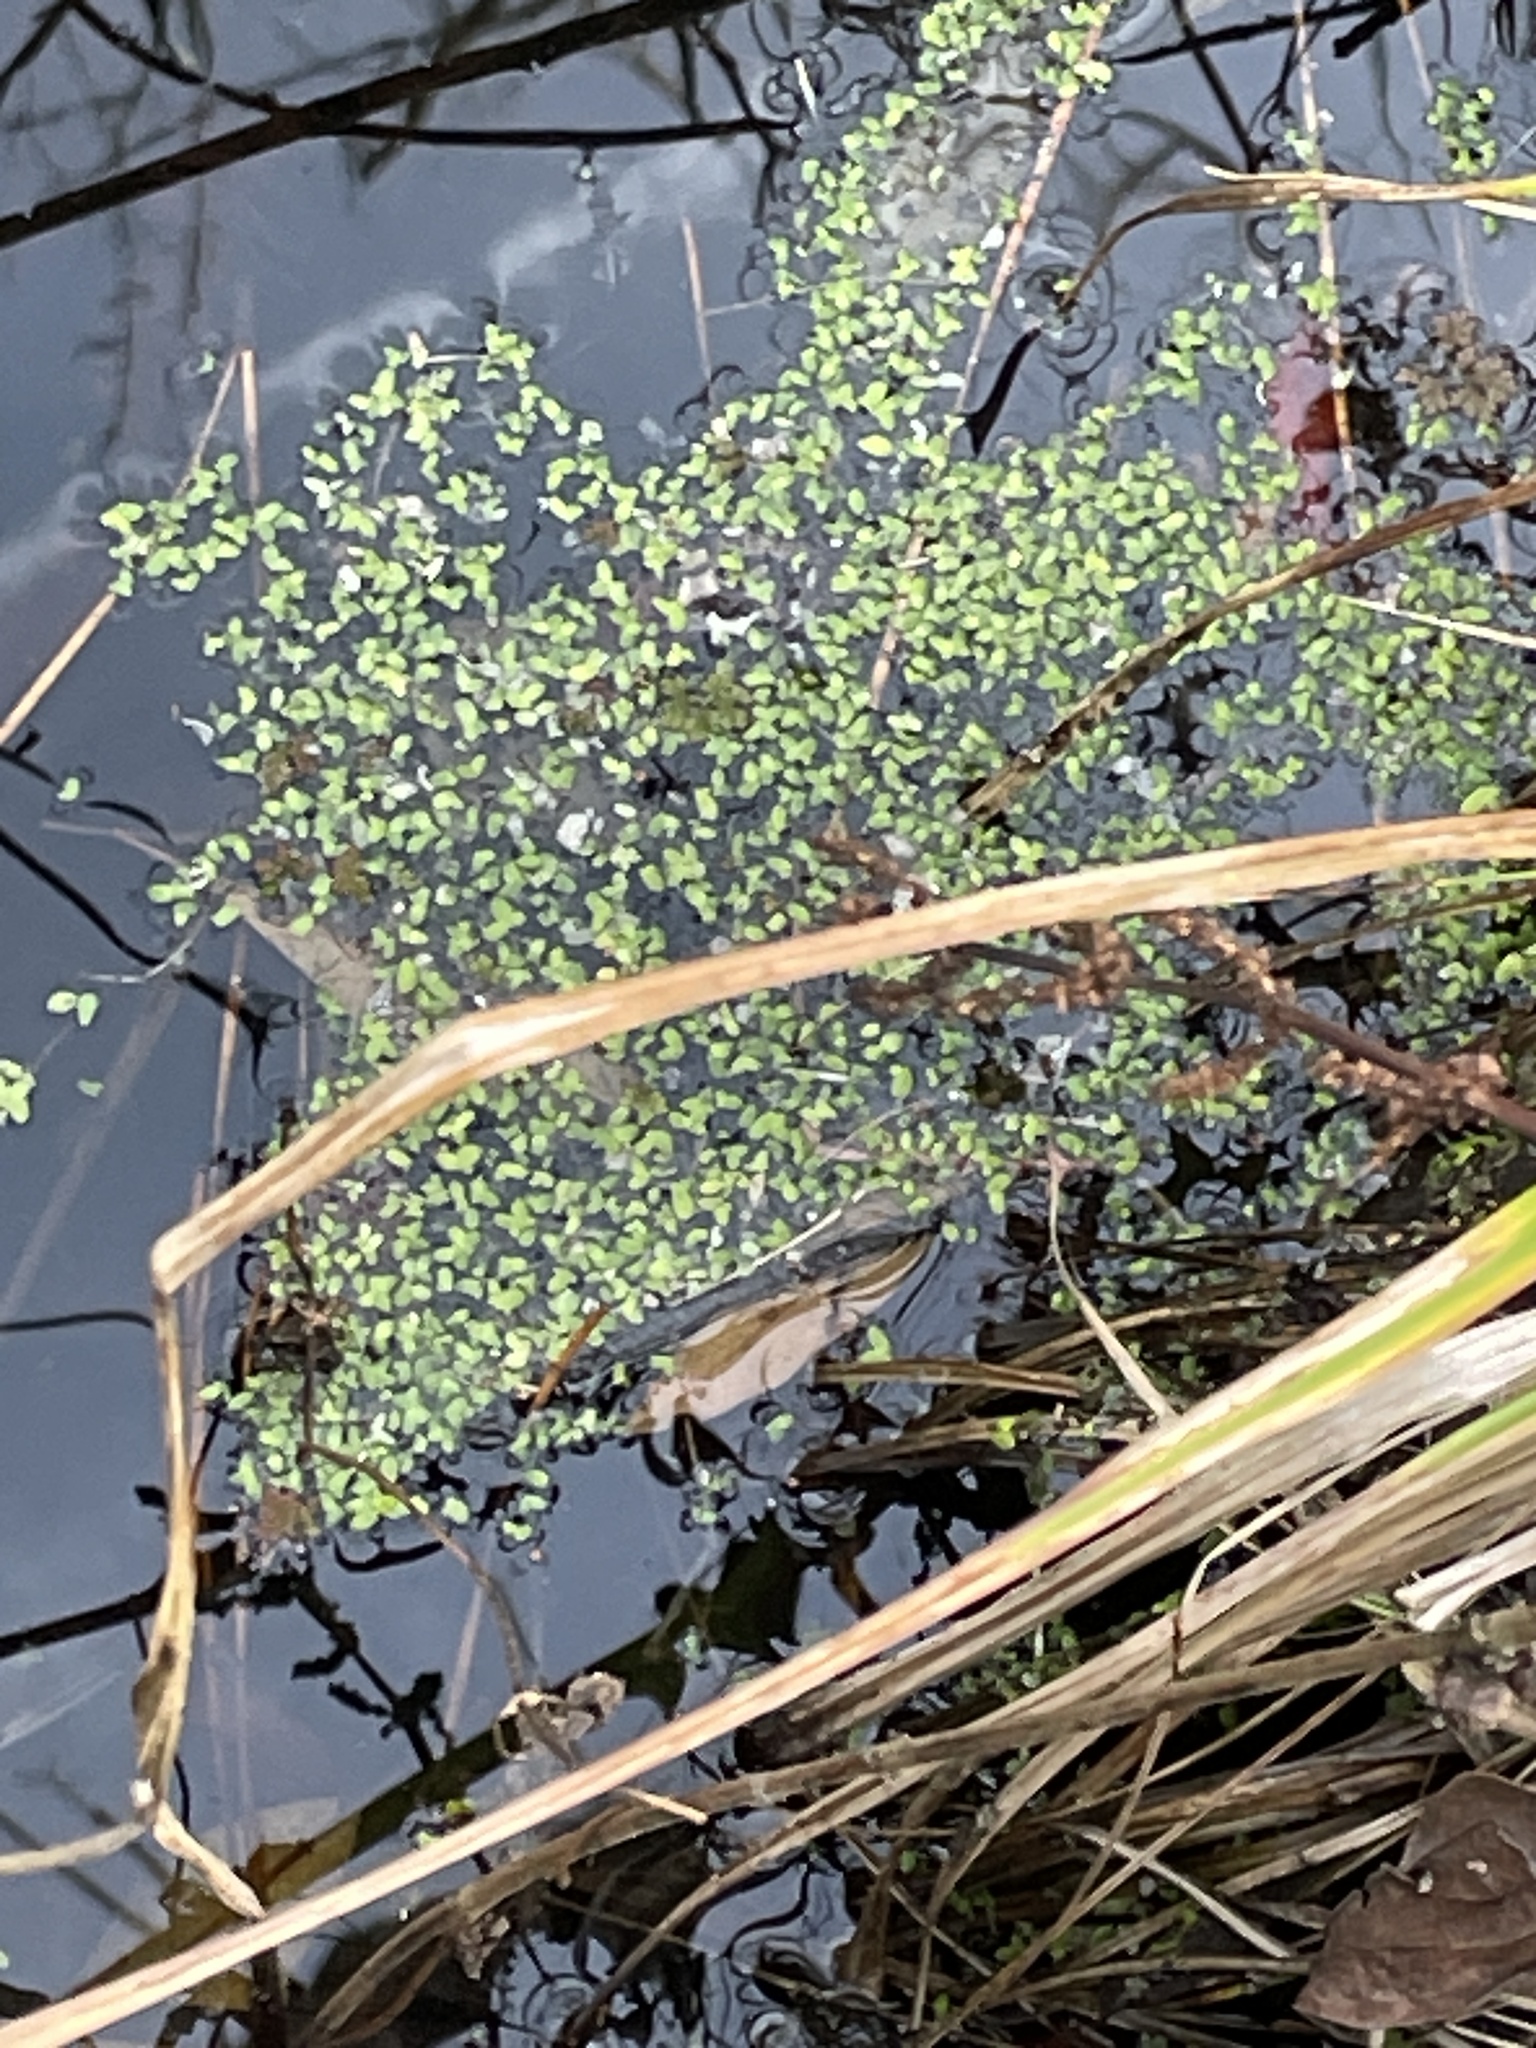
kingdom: Plantae
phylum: Tracheophyta
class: Liliopsida
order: Alismatales
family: Araceae
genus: Lemna
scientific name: Lemna minor
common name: Common duckweed
